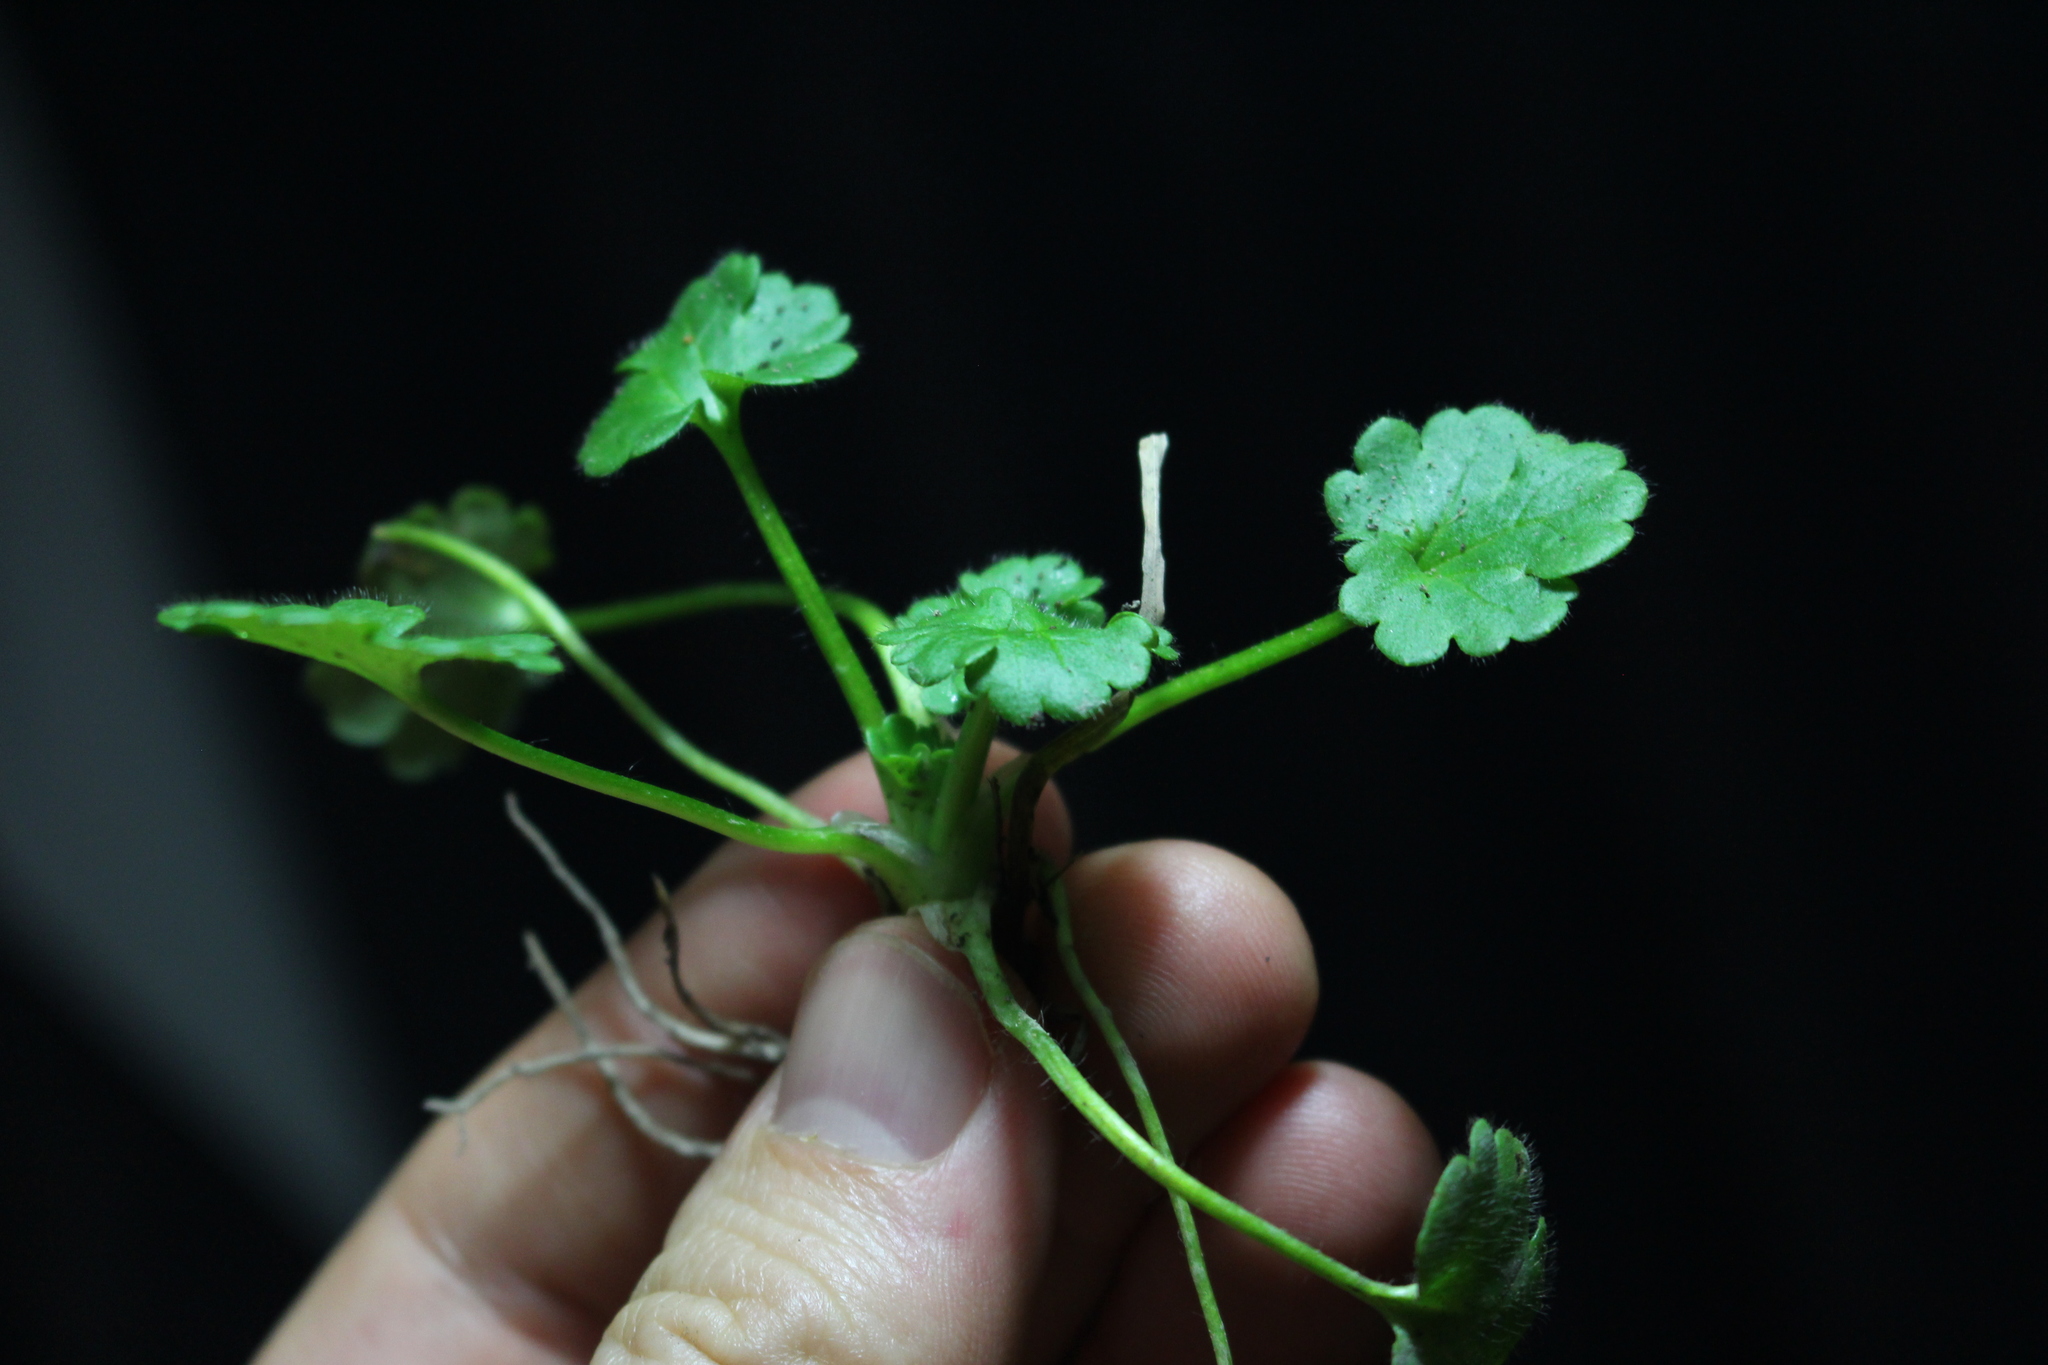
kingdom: Plantae
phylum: Tracheophyta
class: Magnoliopsida
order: Ranunculales
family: Ranunculaceae
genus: Ranunculus
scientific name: Ranunculus parviflorus
